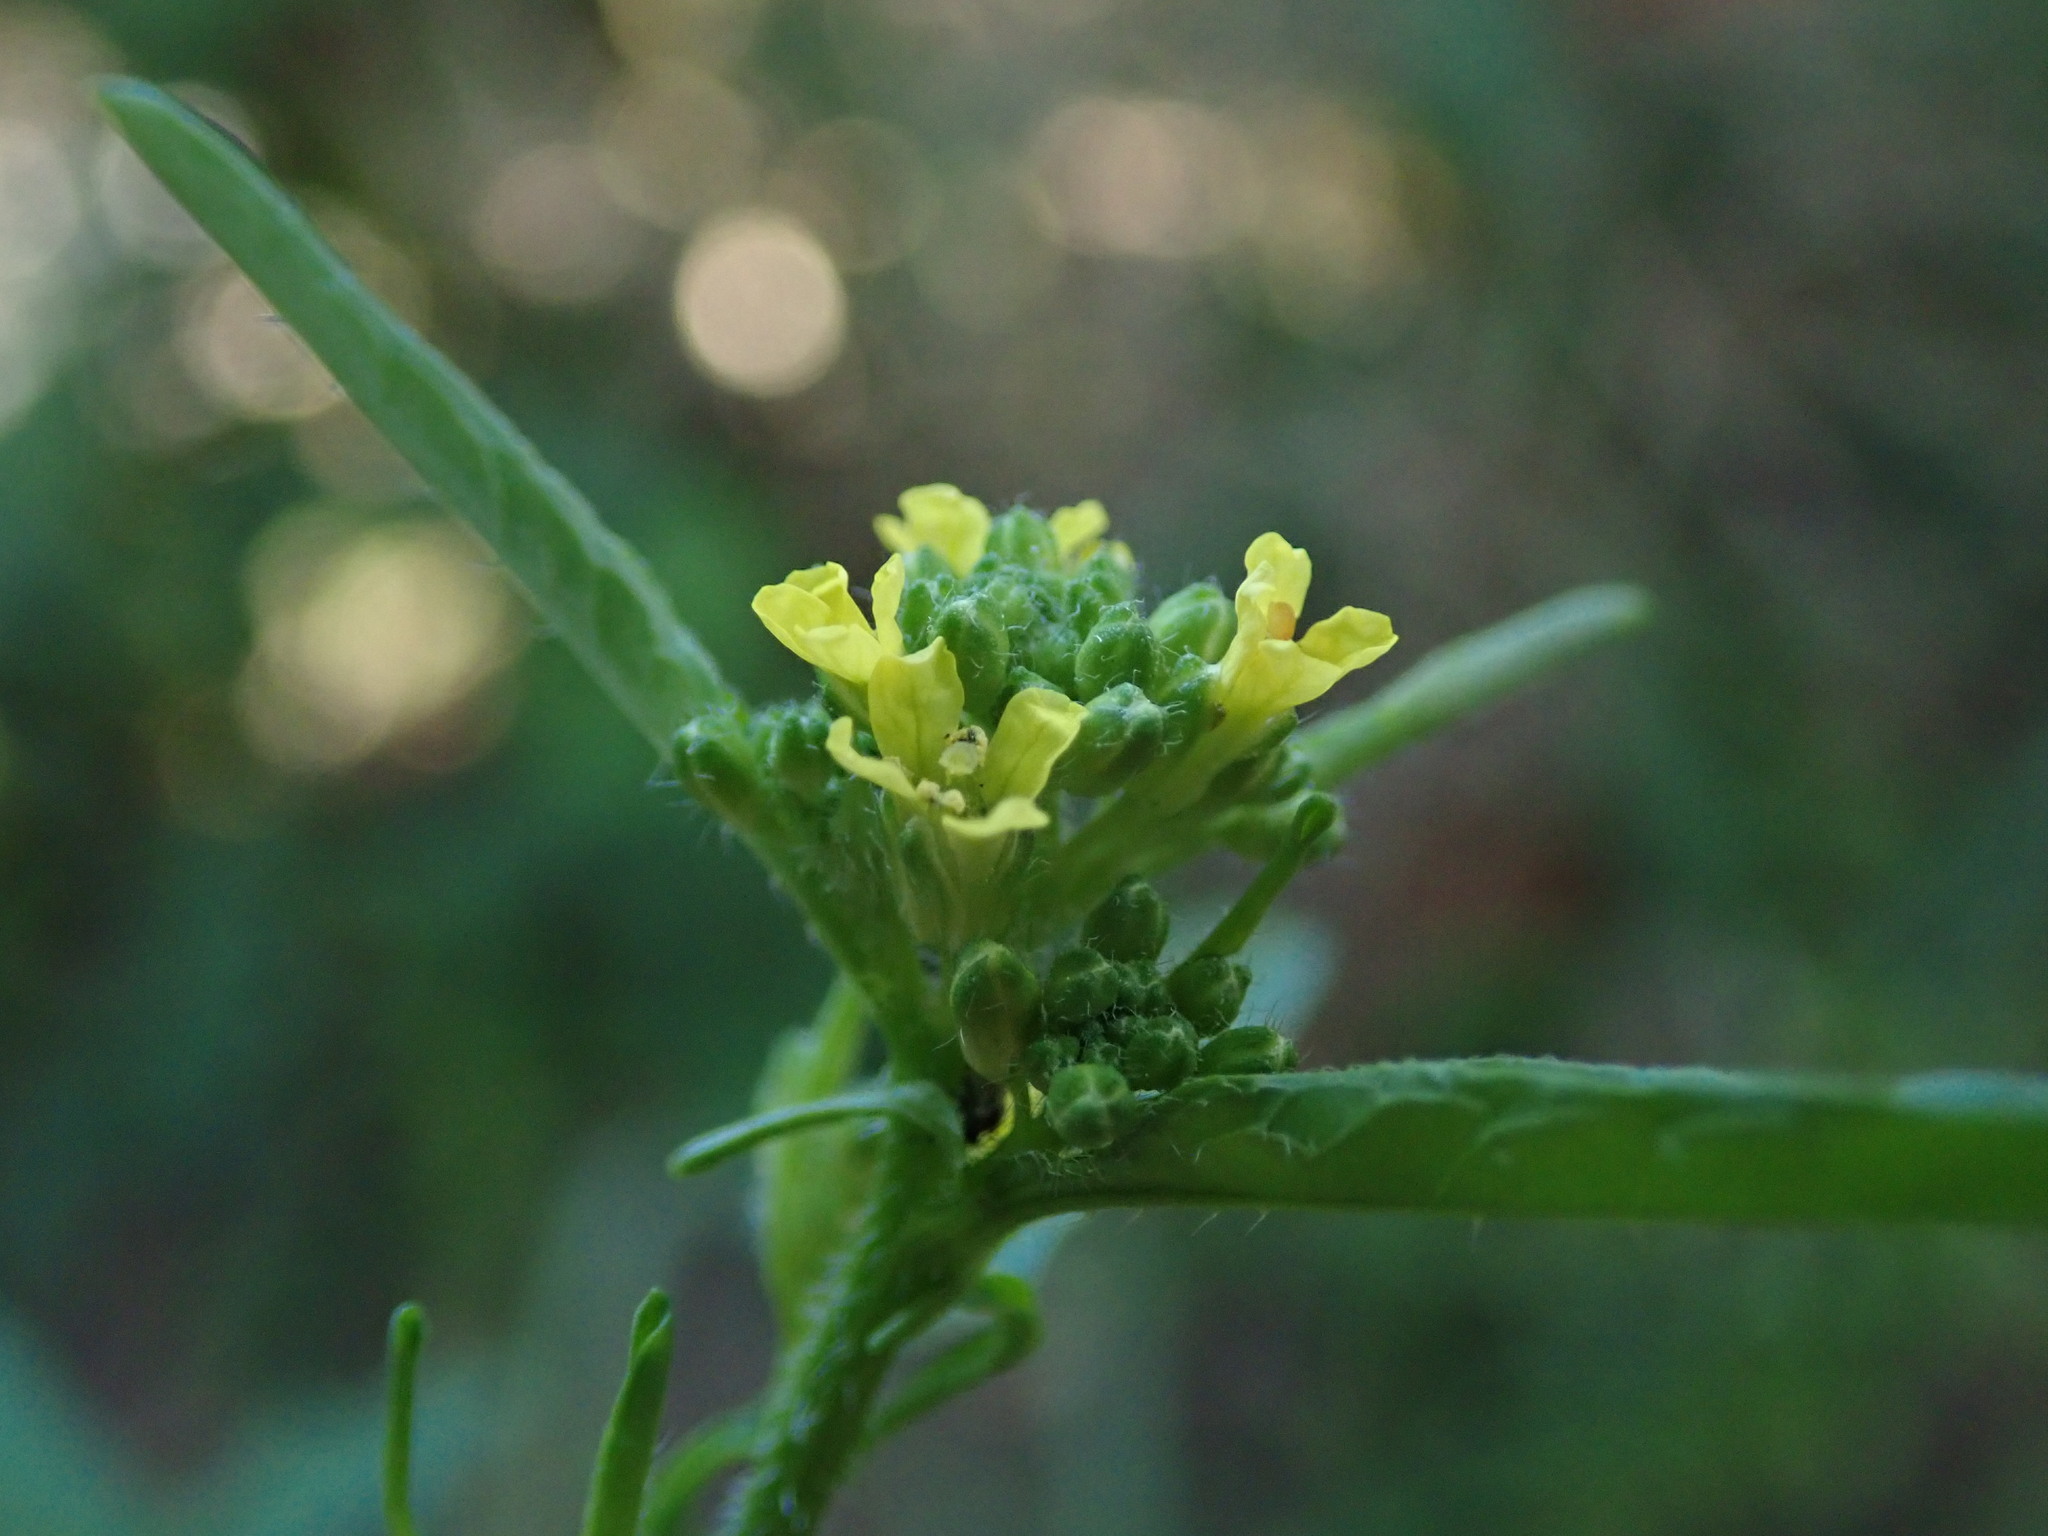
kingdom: Plantae
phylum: Tracheophyta
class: Magnoliopsida
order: Brassicales
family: Brassicaceae
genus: Sisymbrium
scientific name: Sisymbrium officinale
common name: Hedge mustard
